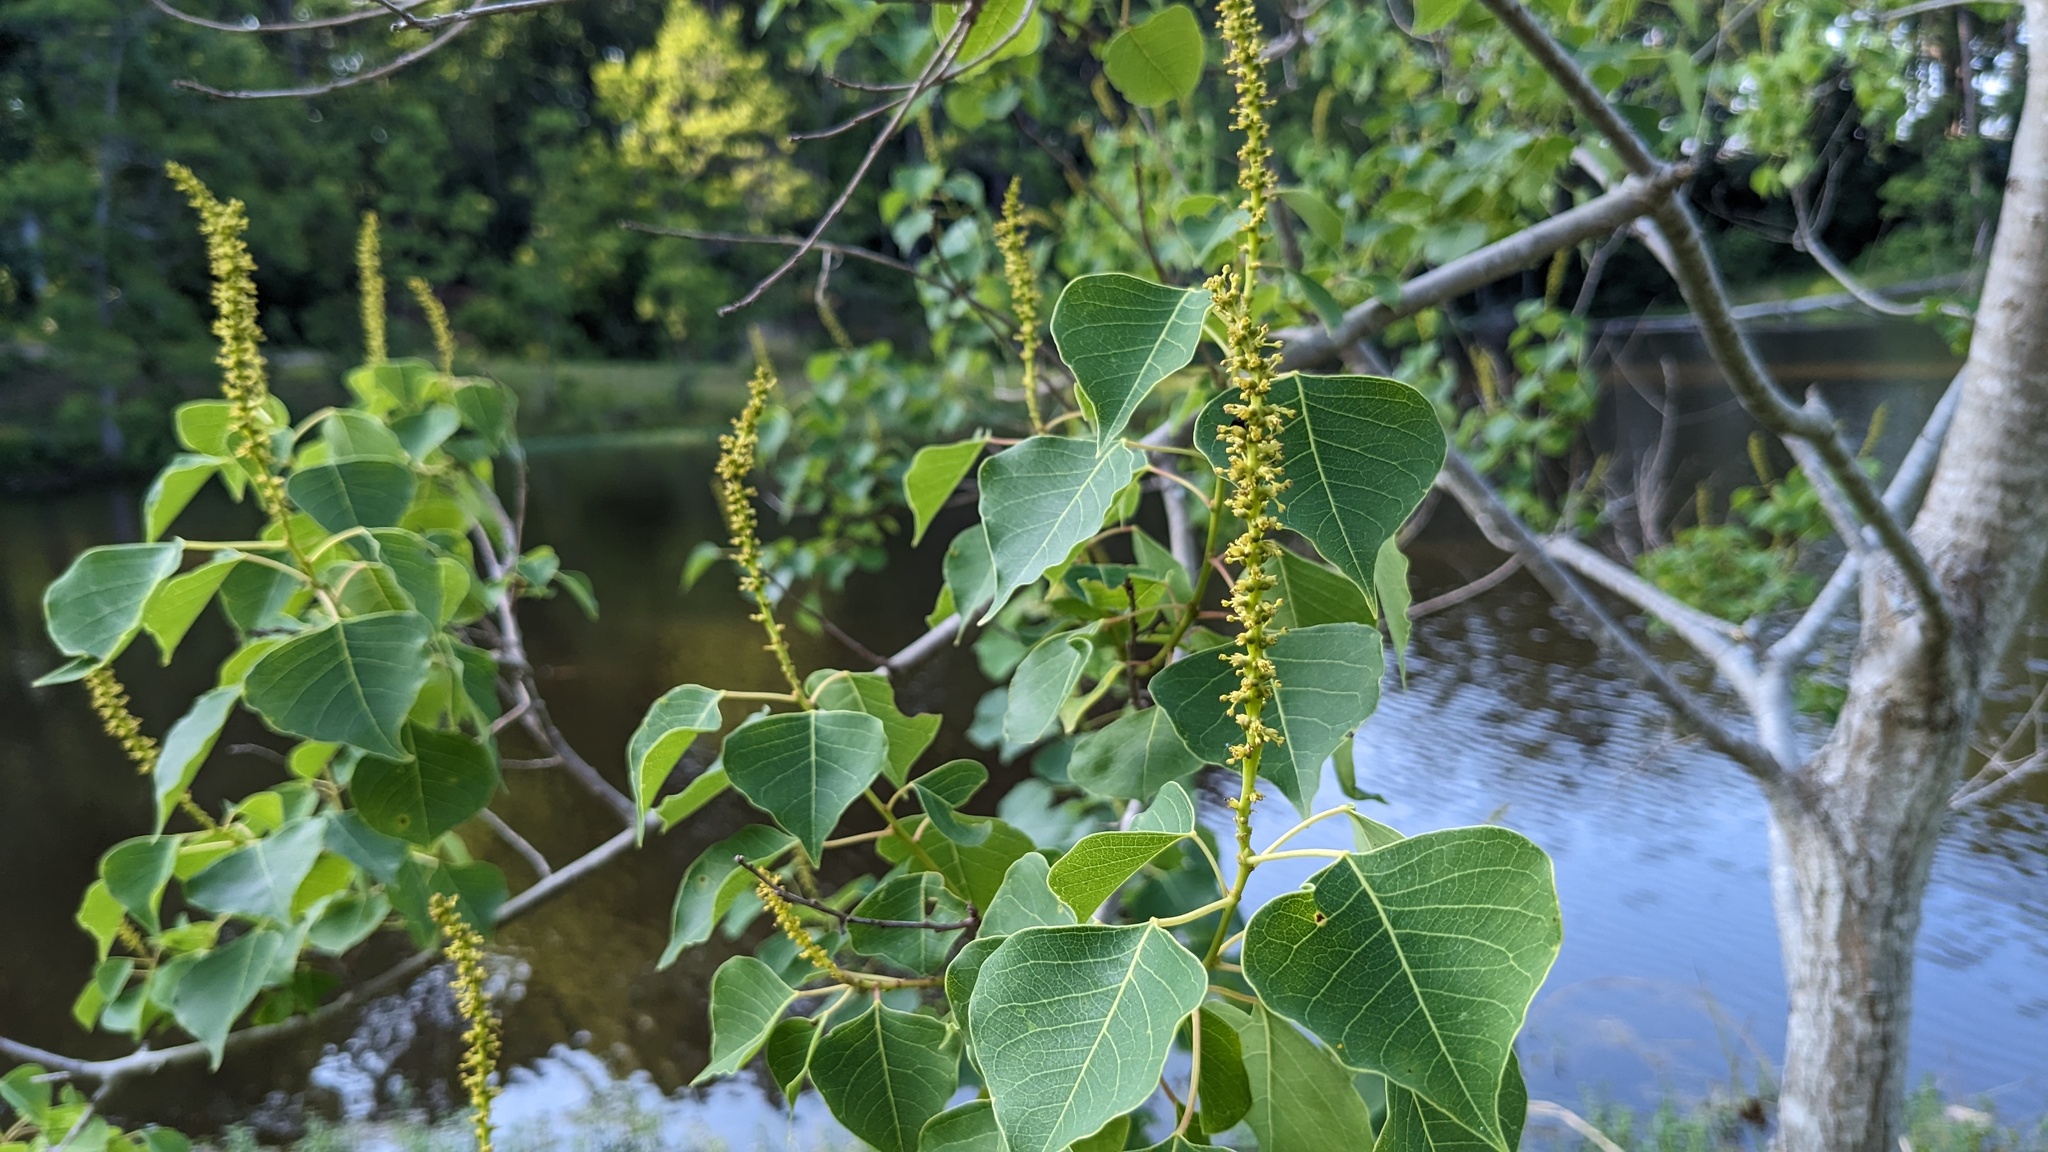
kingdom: Plantae
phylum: Tracheophyta
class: Magnoliopsida
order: Malpighiales
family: Euphorbiaceae
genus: Triadica
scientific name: Triadica sebifera
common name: Chinese tallow
